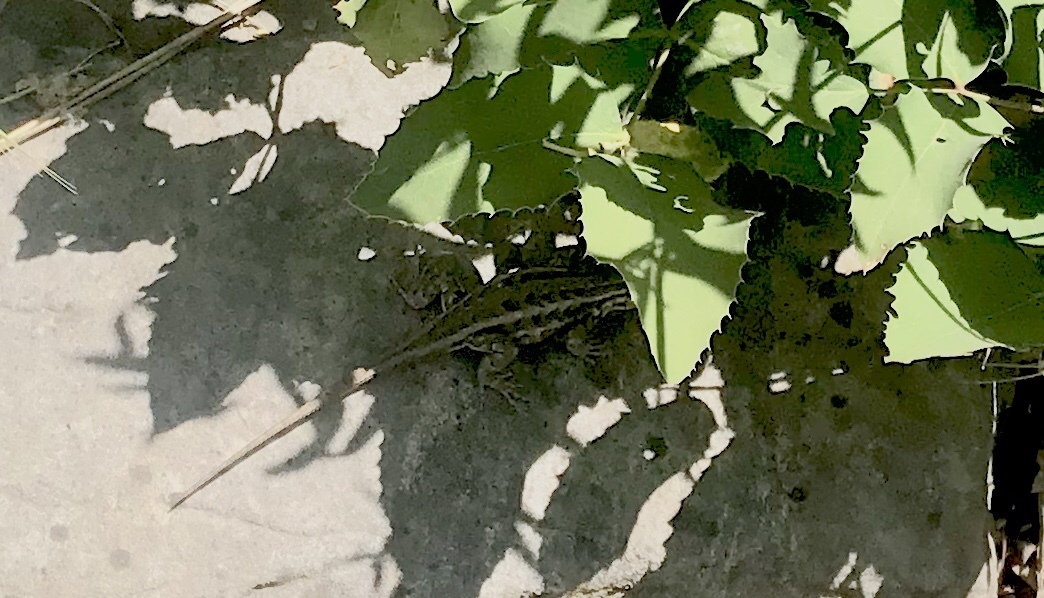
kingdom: Animalia
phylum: Chordata
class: Squamata
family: Phrynosomatidae
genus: Sceloporus
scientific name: Sceloporus graciosus
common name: Sagebrush lizard
